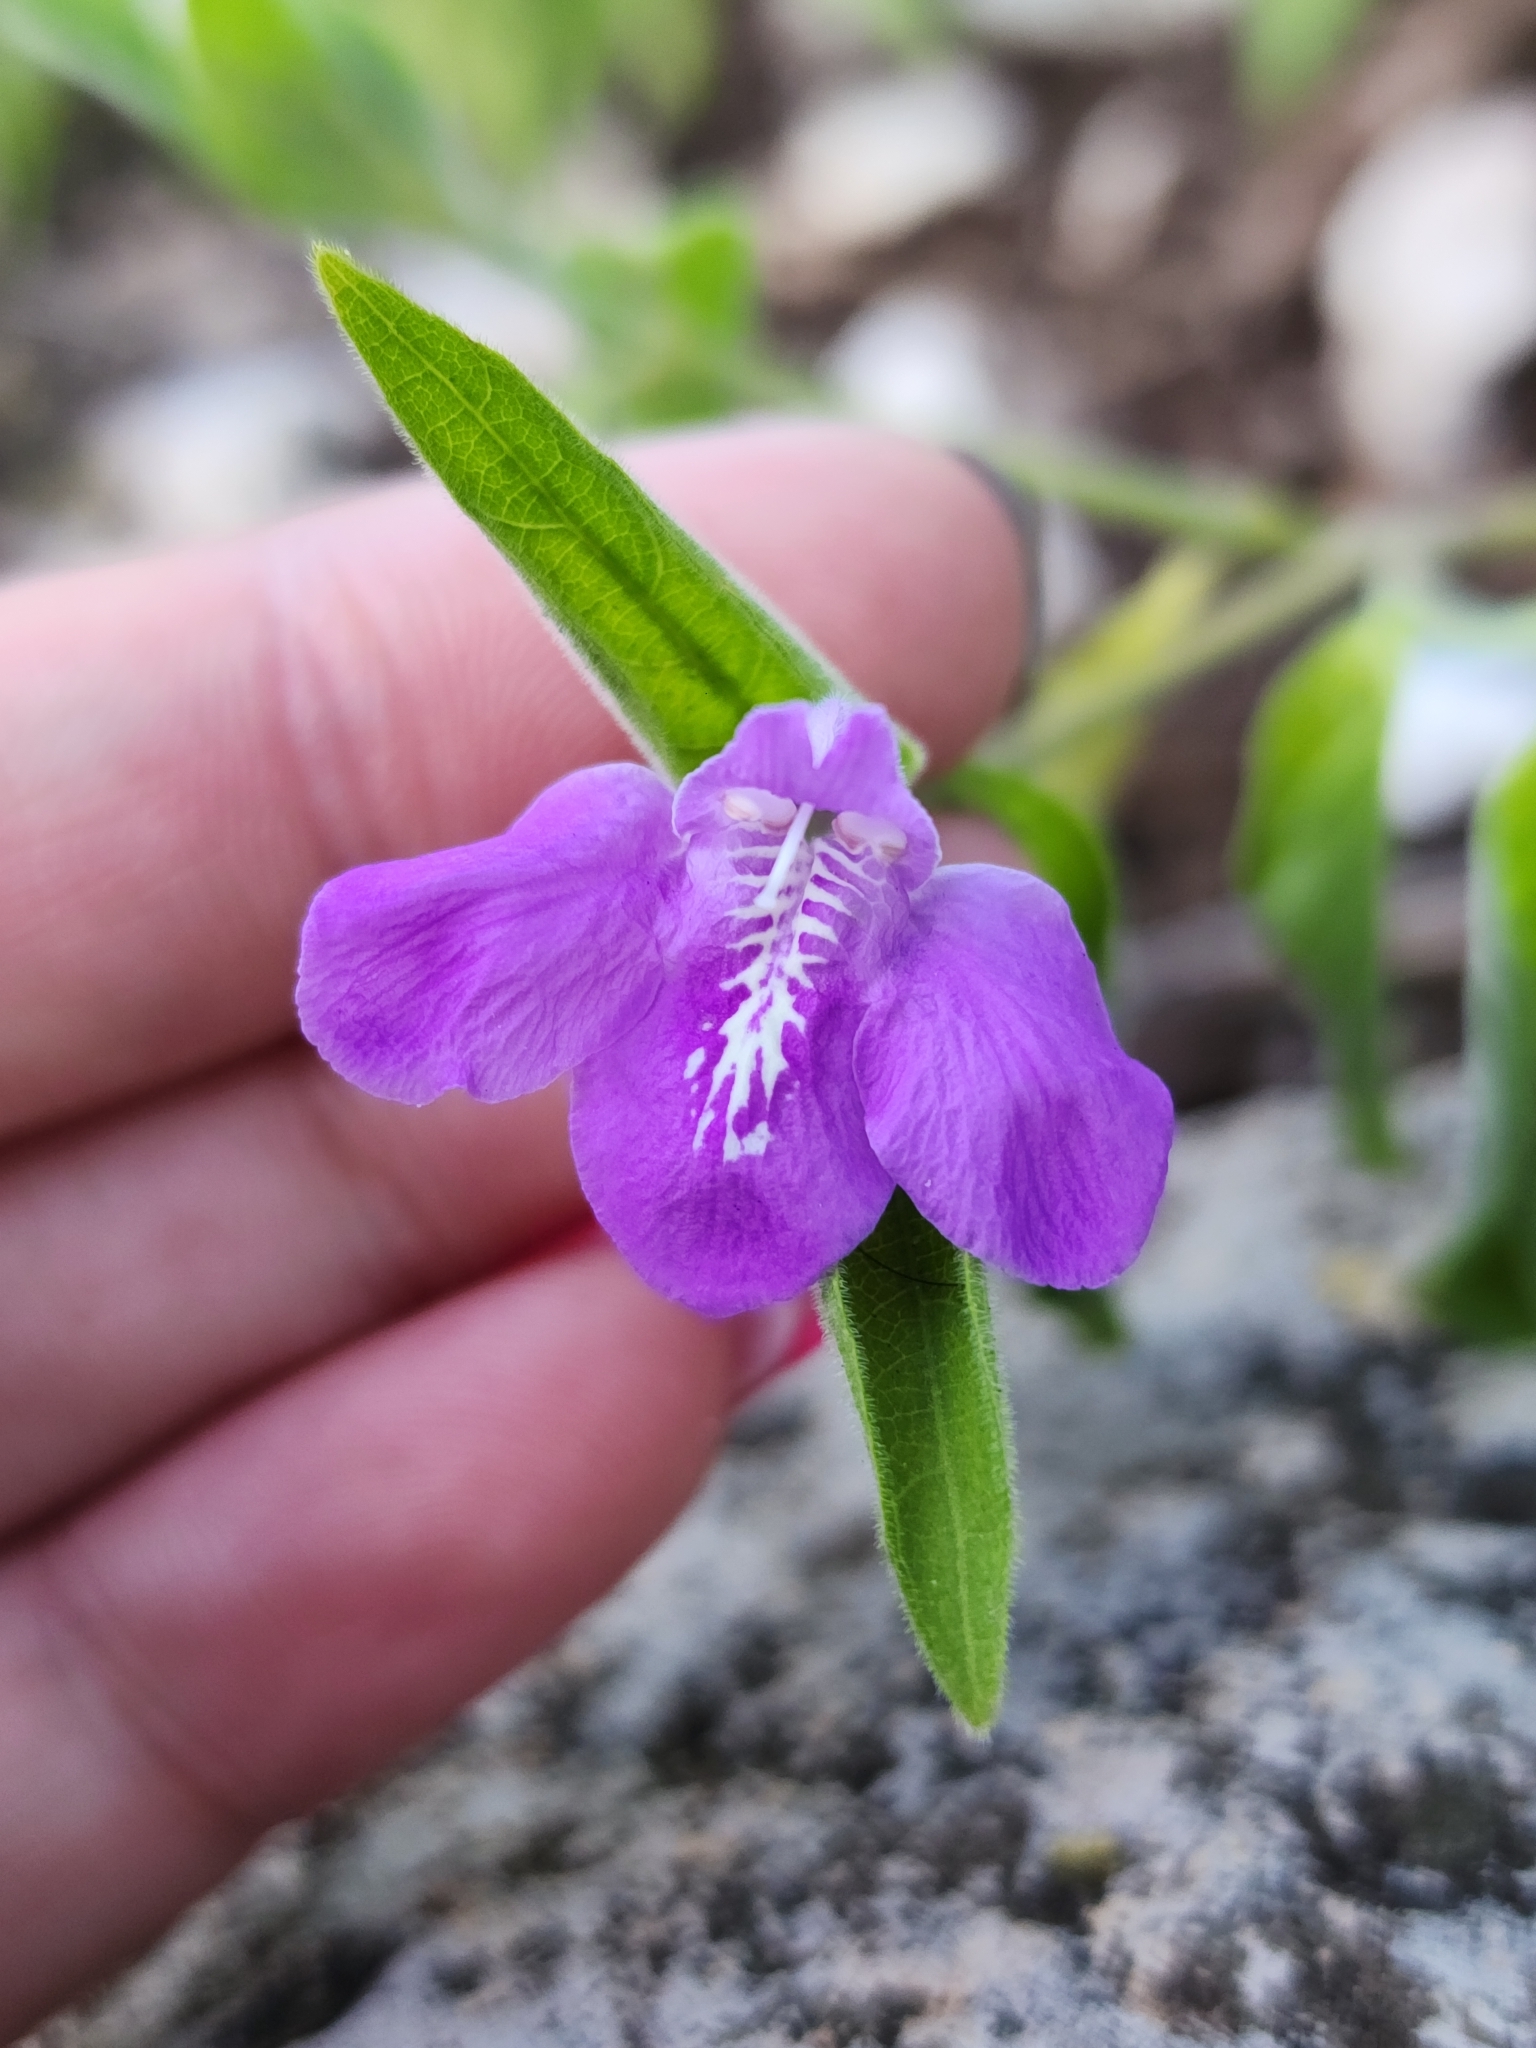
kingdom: Plantae
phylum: Tracheophyta
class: Magnoliopsida
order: Lamiales
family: Acanthaceae
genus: Poikilacanthus
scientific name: Poikilacanthus tweedianus
